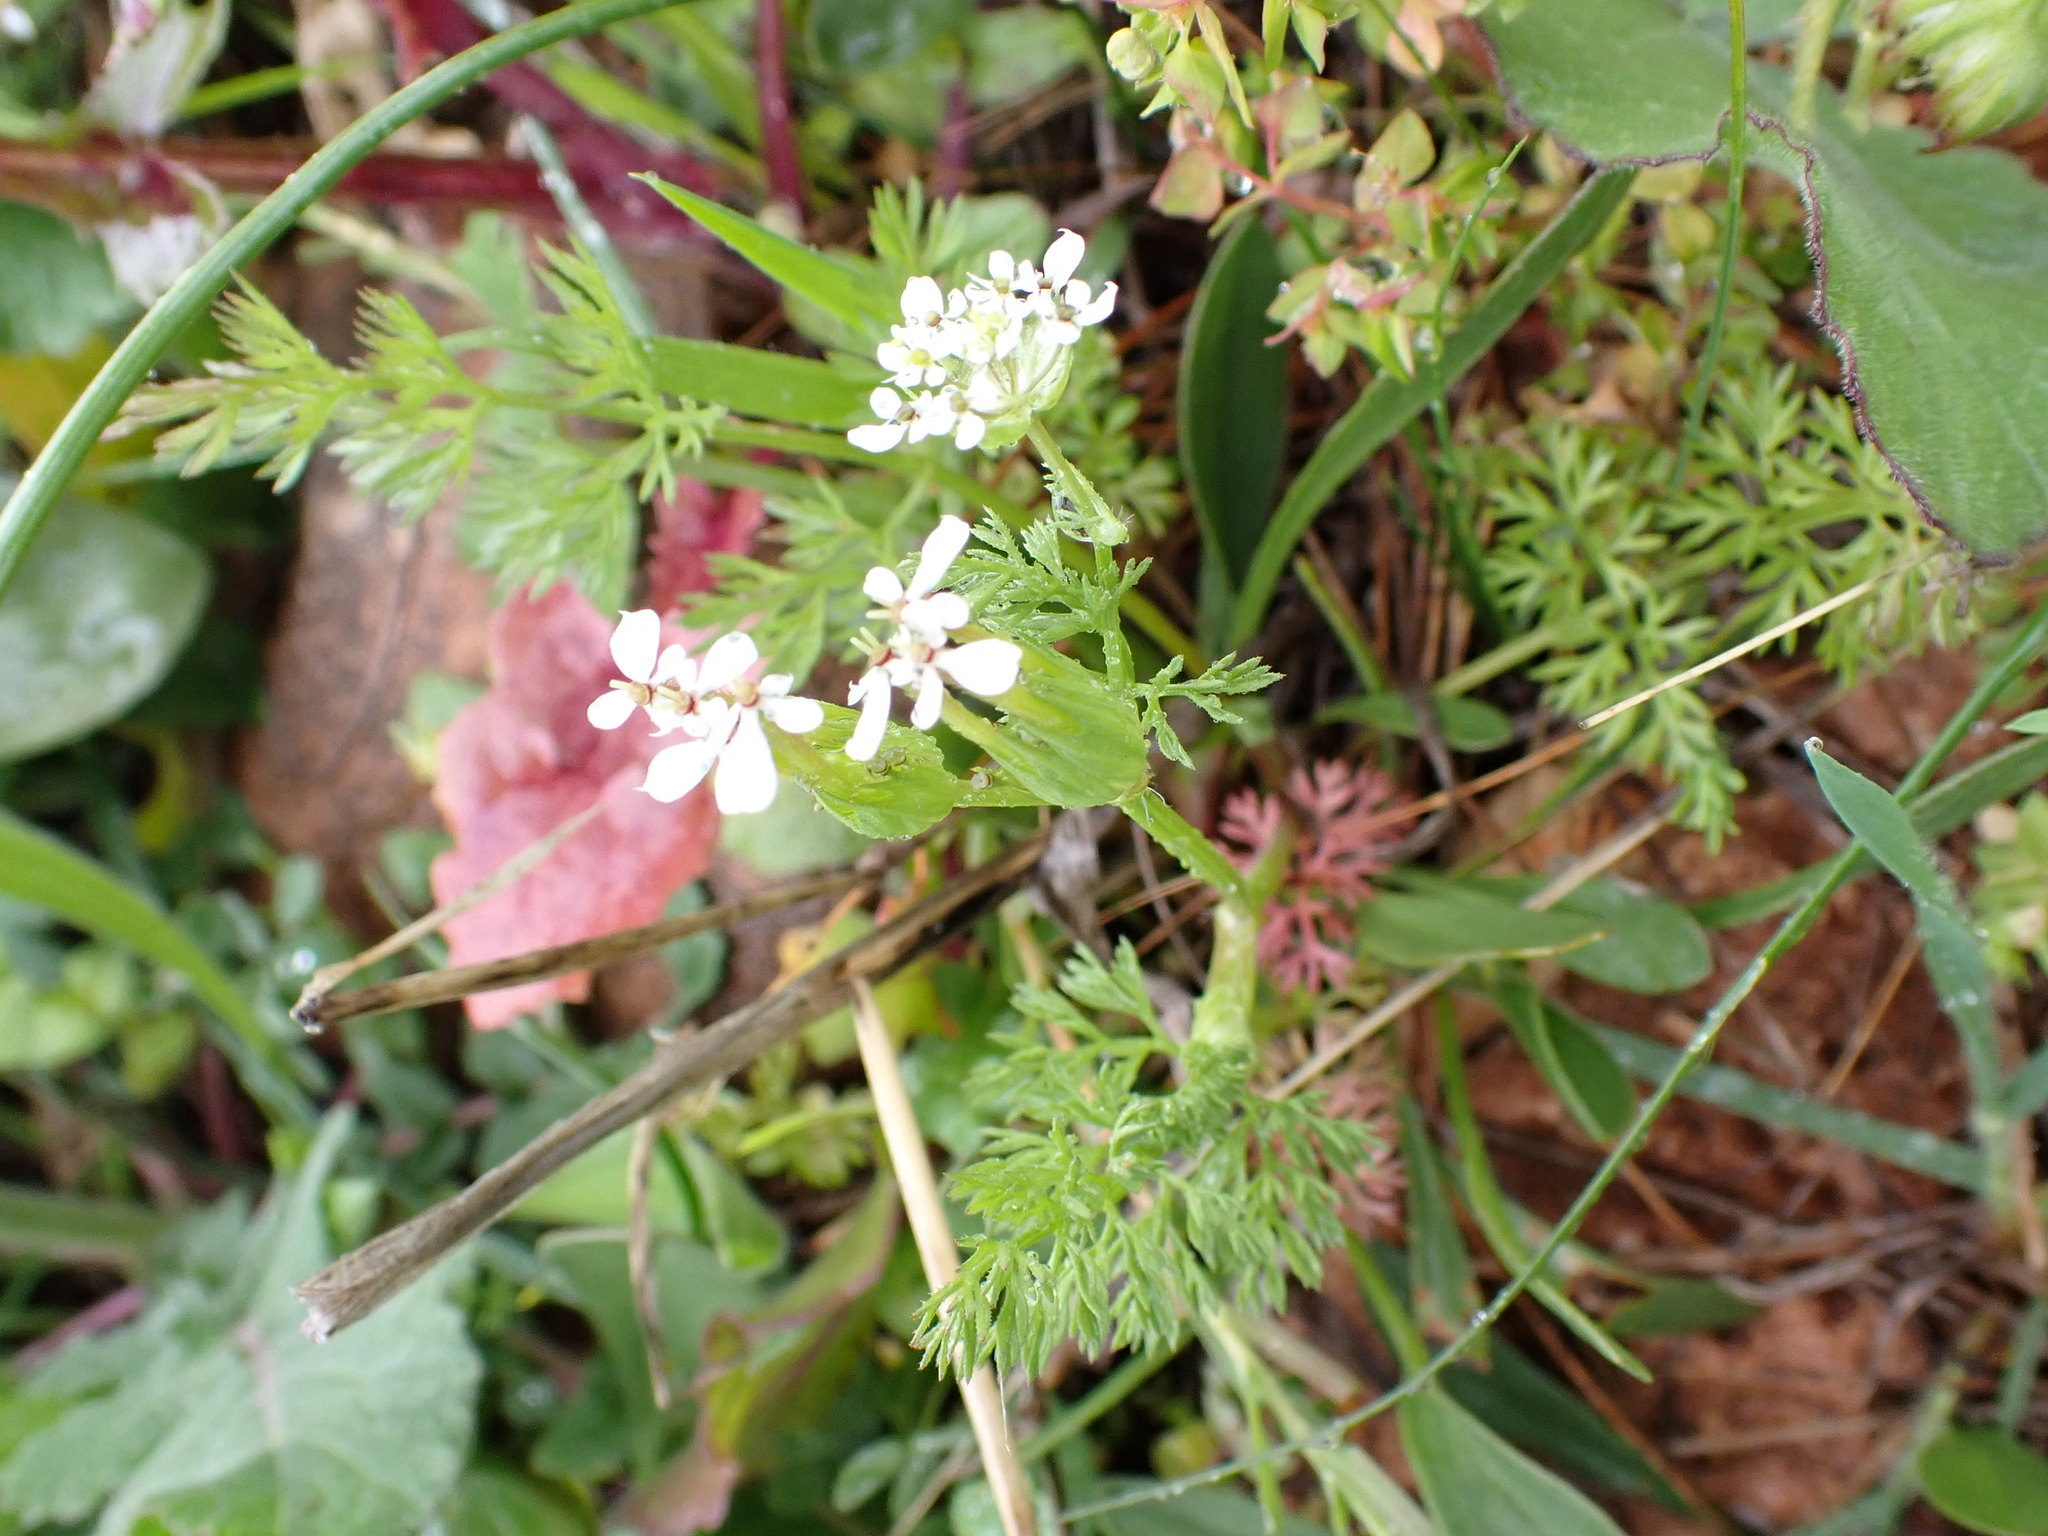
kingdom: Plantae
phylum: Tracheophyta
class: Magnoliopsida
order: Apiales
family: Apiaceae
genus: Scandix
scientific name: Scandix pecten-veneris
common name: Shepherd's-needle
